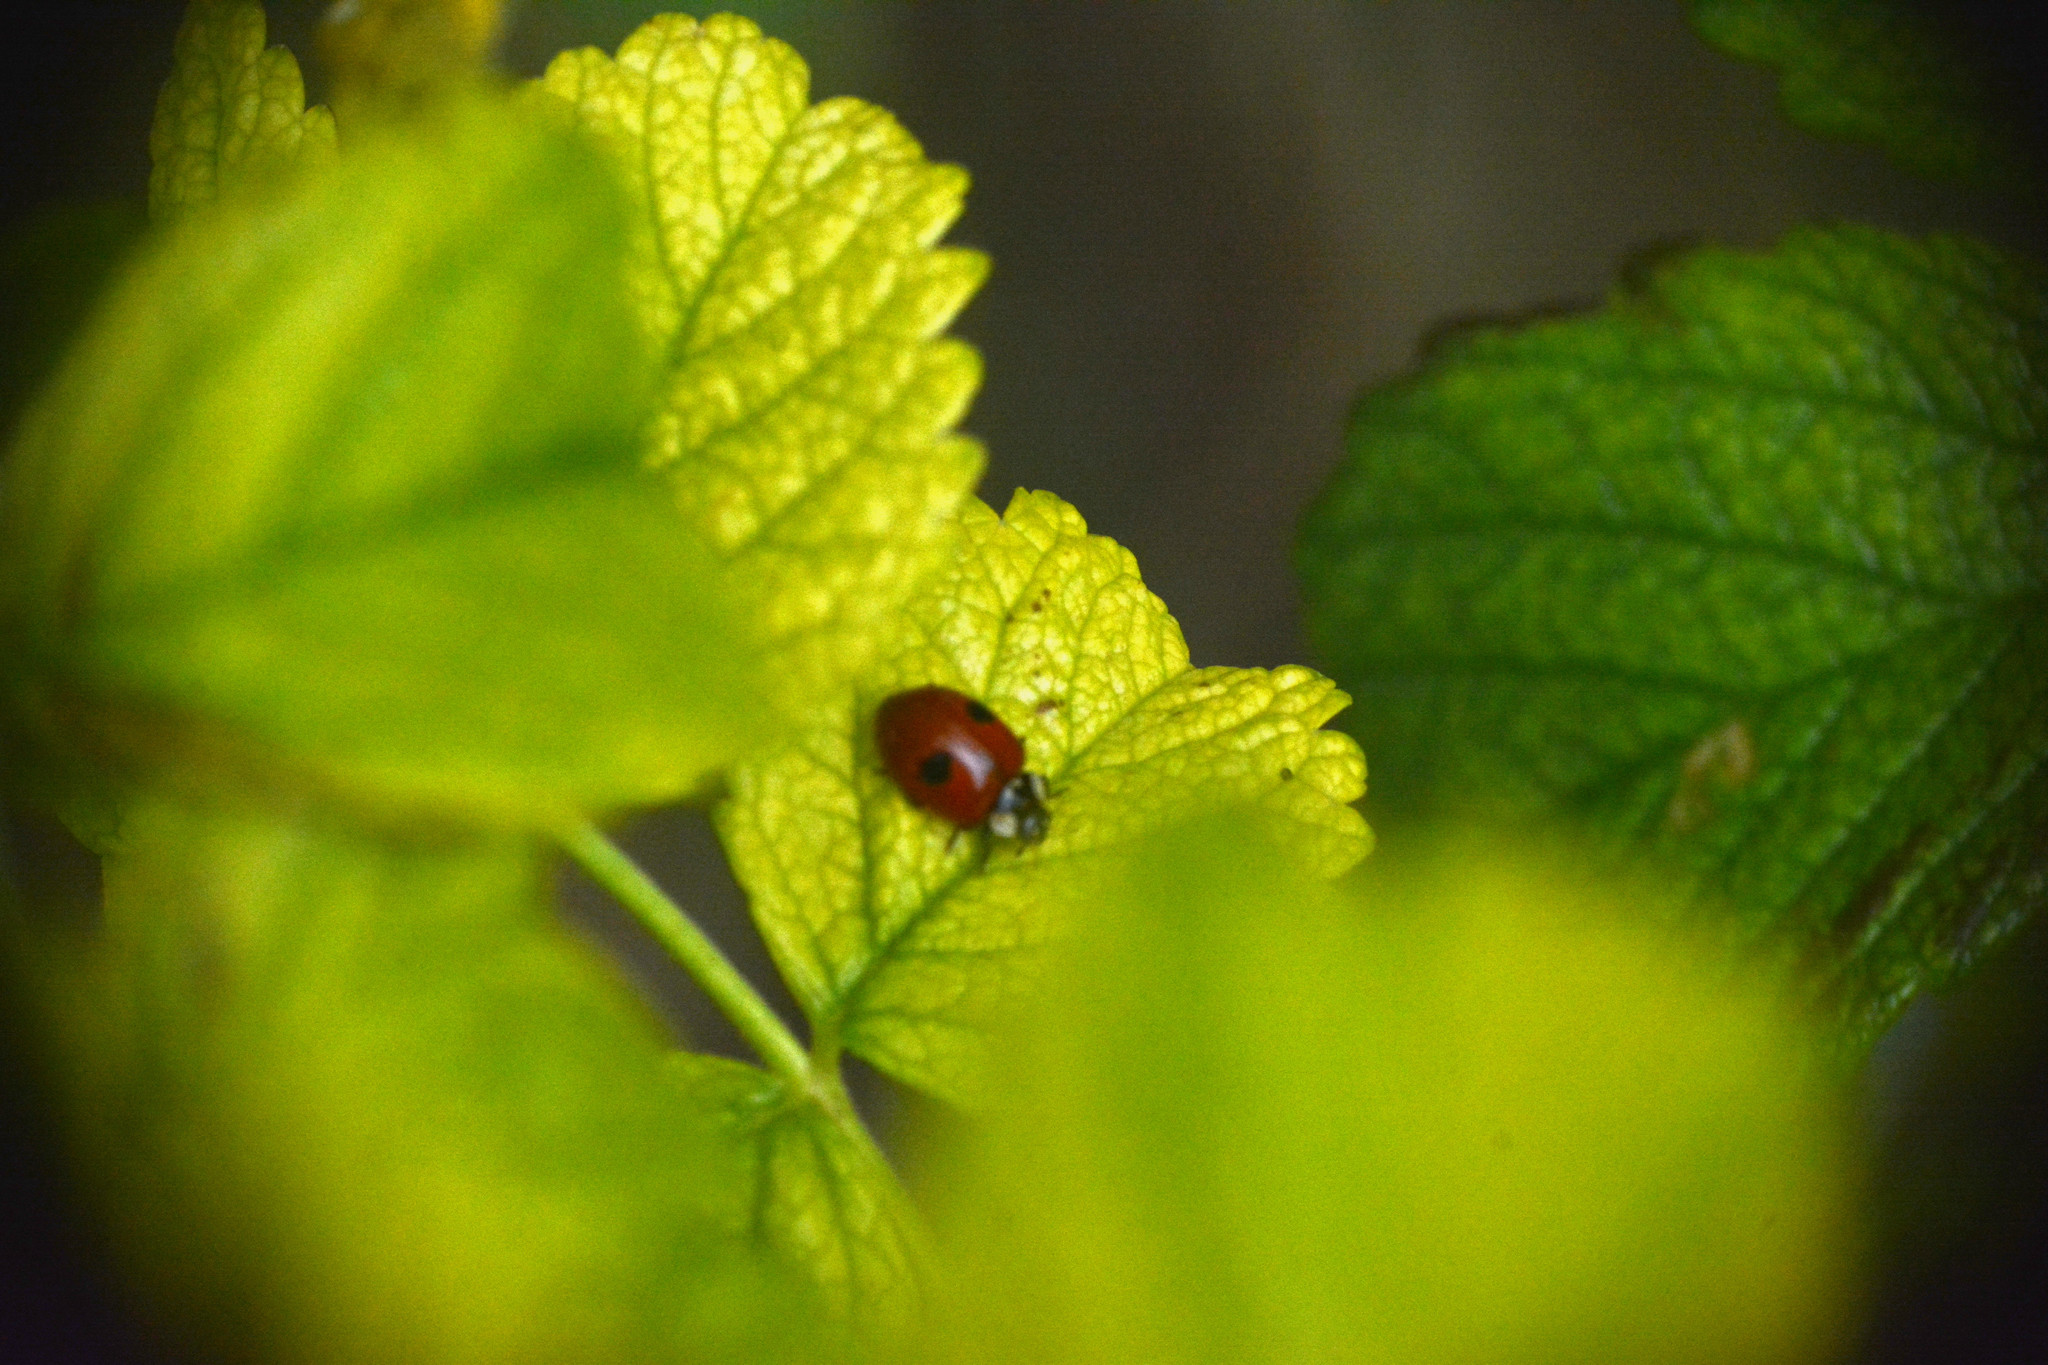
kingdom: Animalia
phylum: Arthropoda
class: Insecta
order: Coleoptera
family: Coccinellidae
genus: Adalia
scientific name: Adalia bipunctata
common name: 2-spot ladybird
